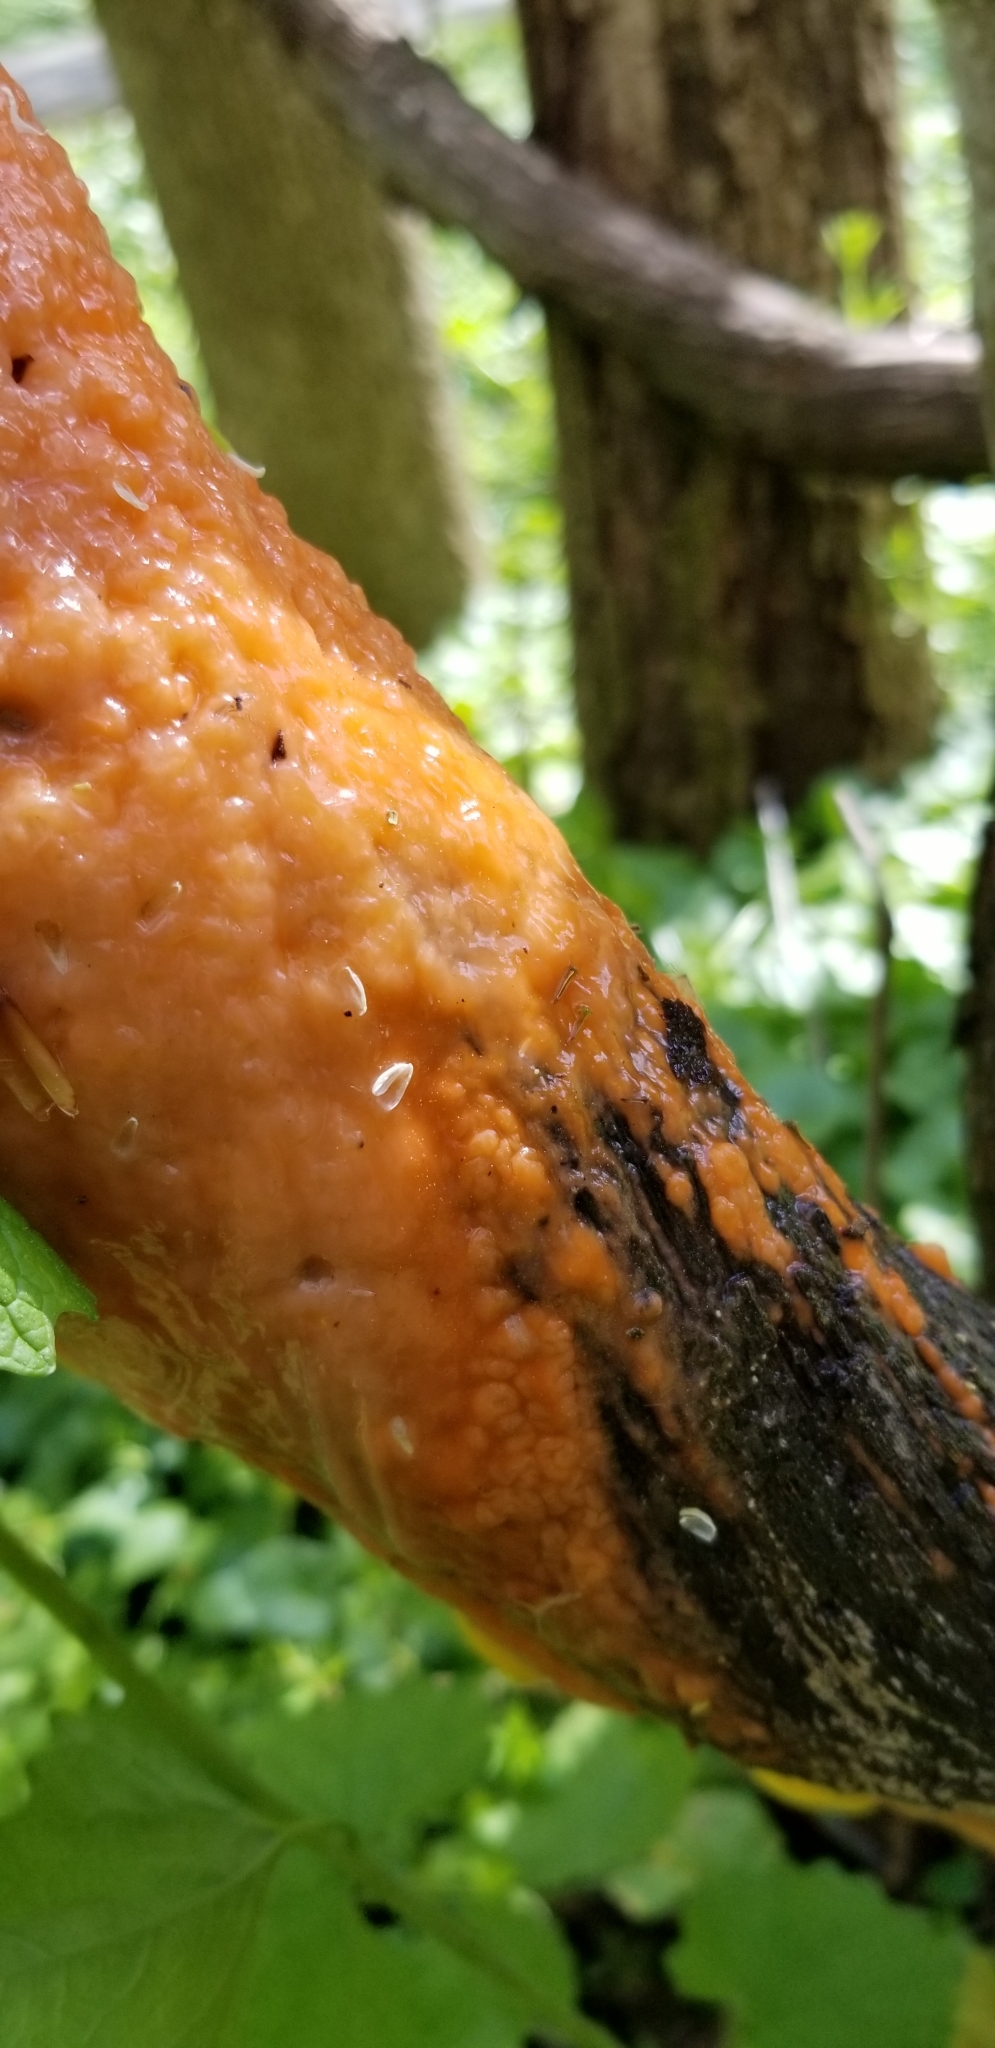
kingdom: Fungi
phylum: Ascomycota
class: Sordariomycetes
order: Hypocreales
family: Nectriaceae
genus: Fusicolla
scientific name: Fusicolla merismoides
